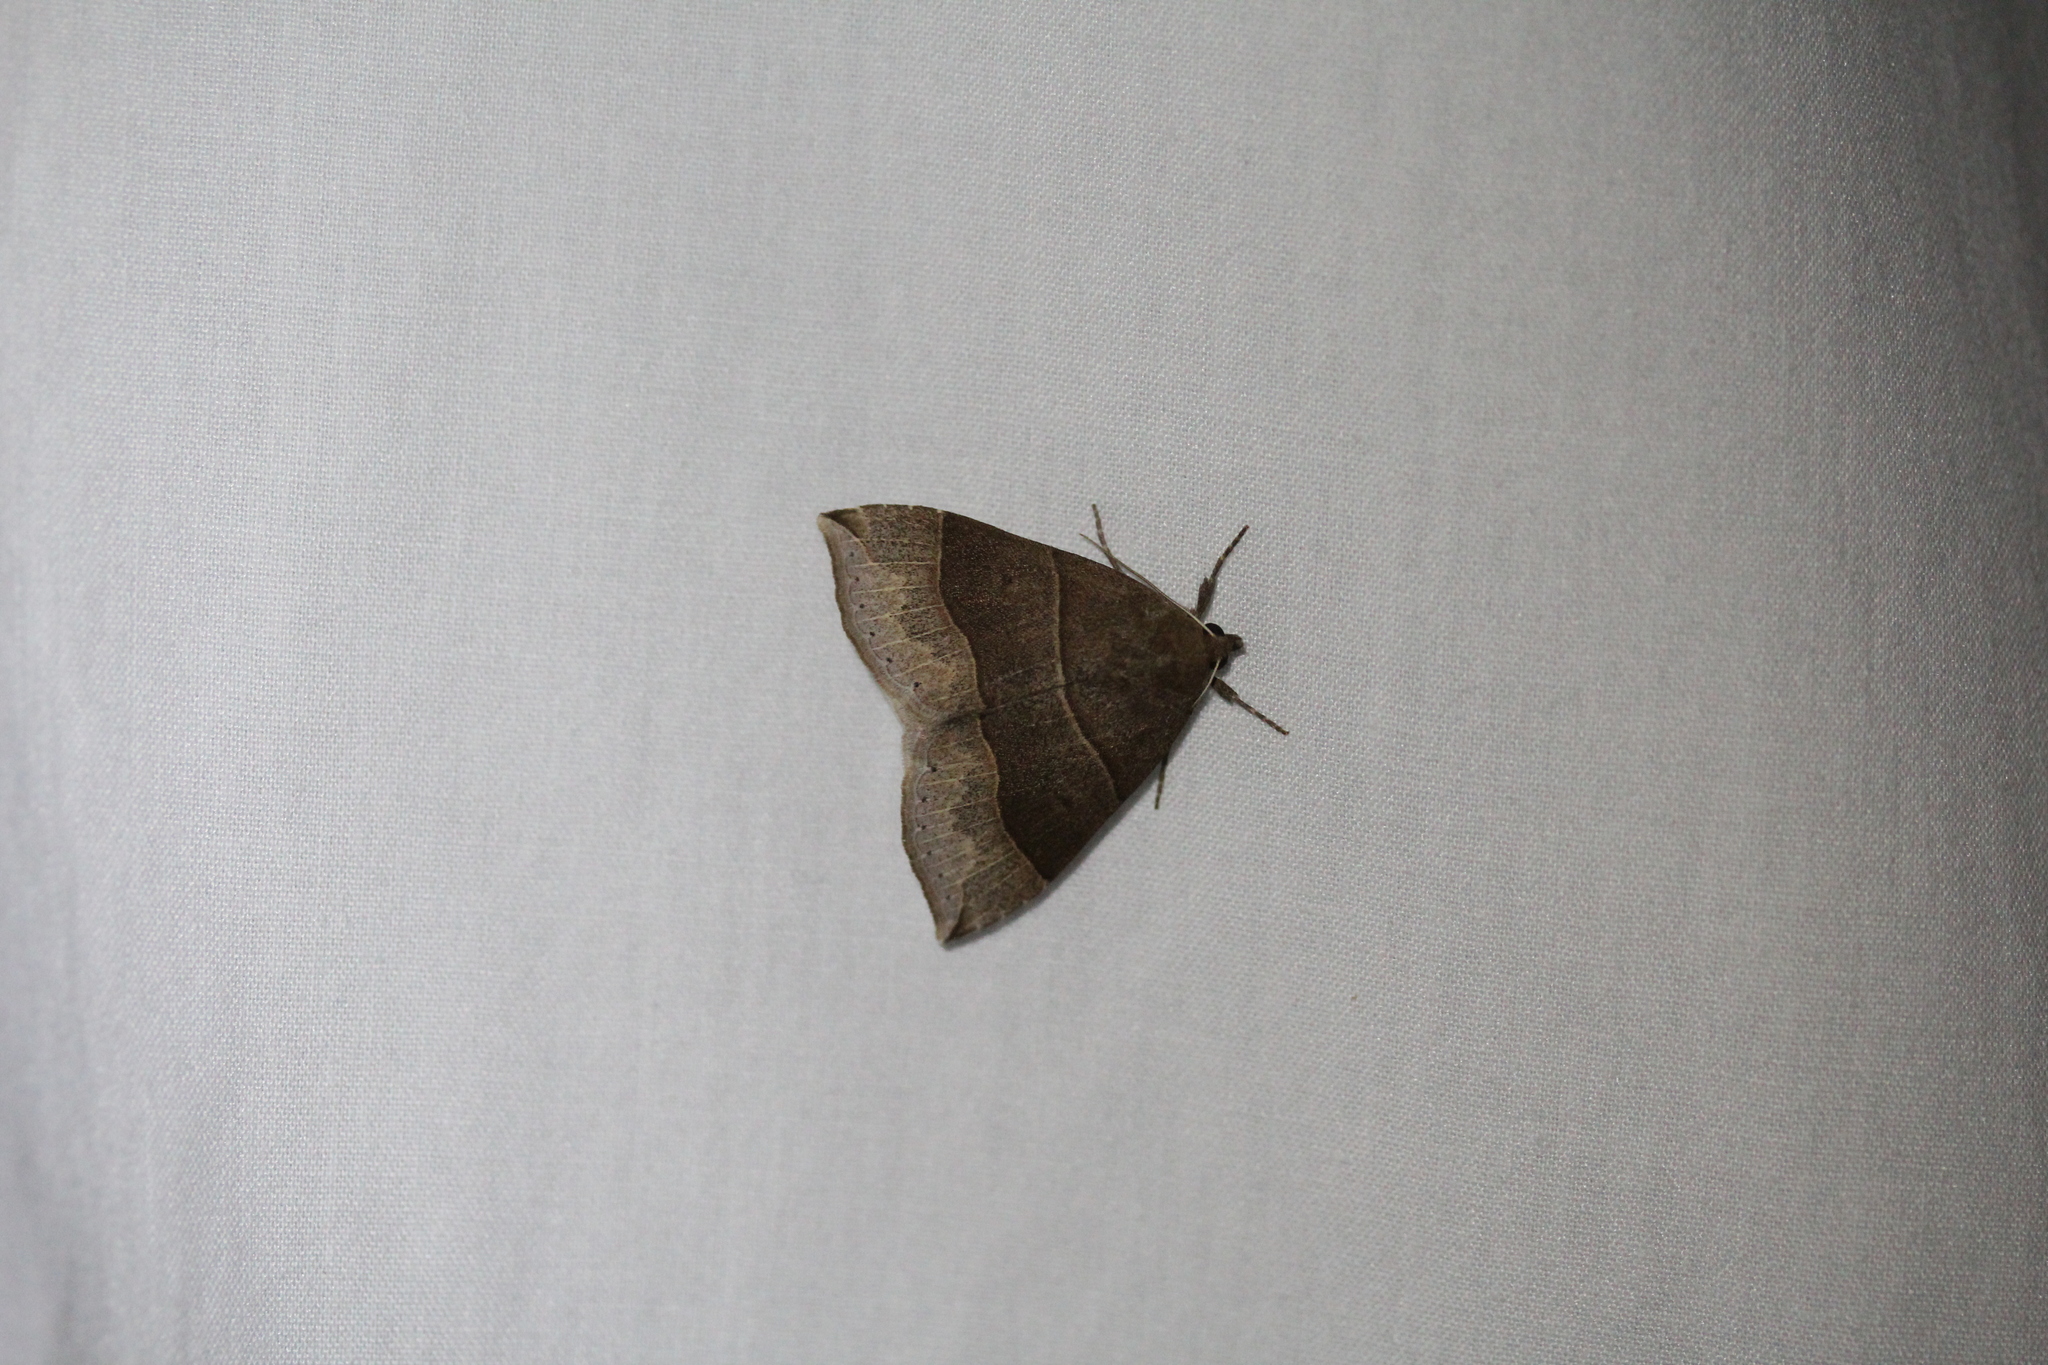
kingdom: Animalia
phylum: Arthropoda
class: Insecta
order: Lepidoptera
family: Erebidae
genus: Parallelia
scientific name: Parallelia bistriaris
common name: Maple looper moth
